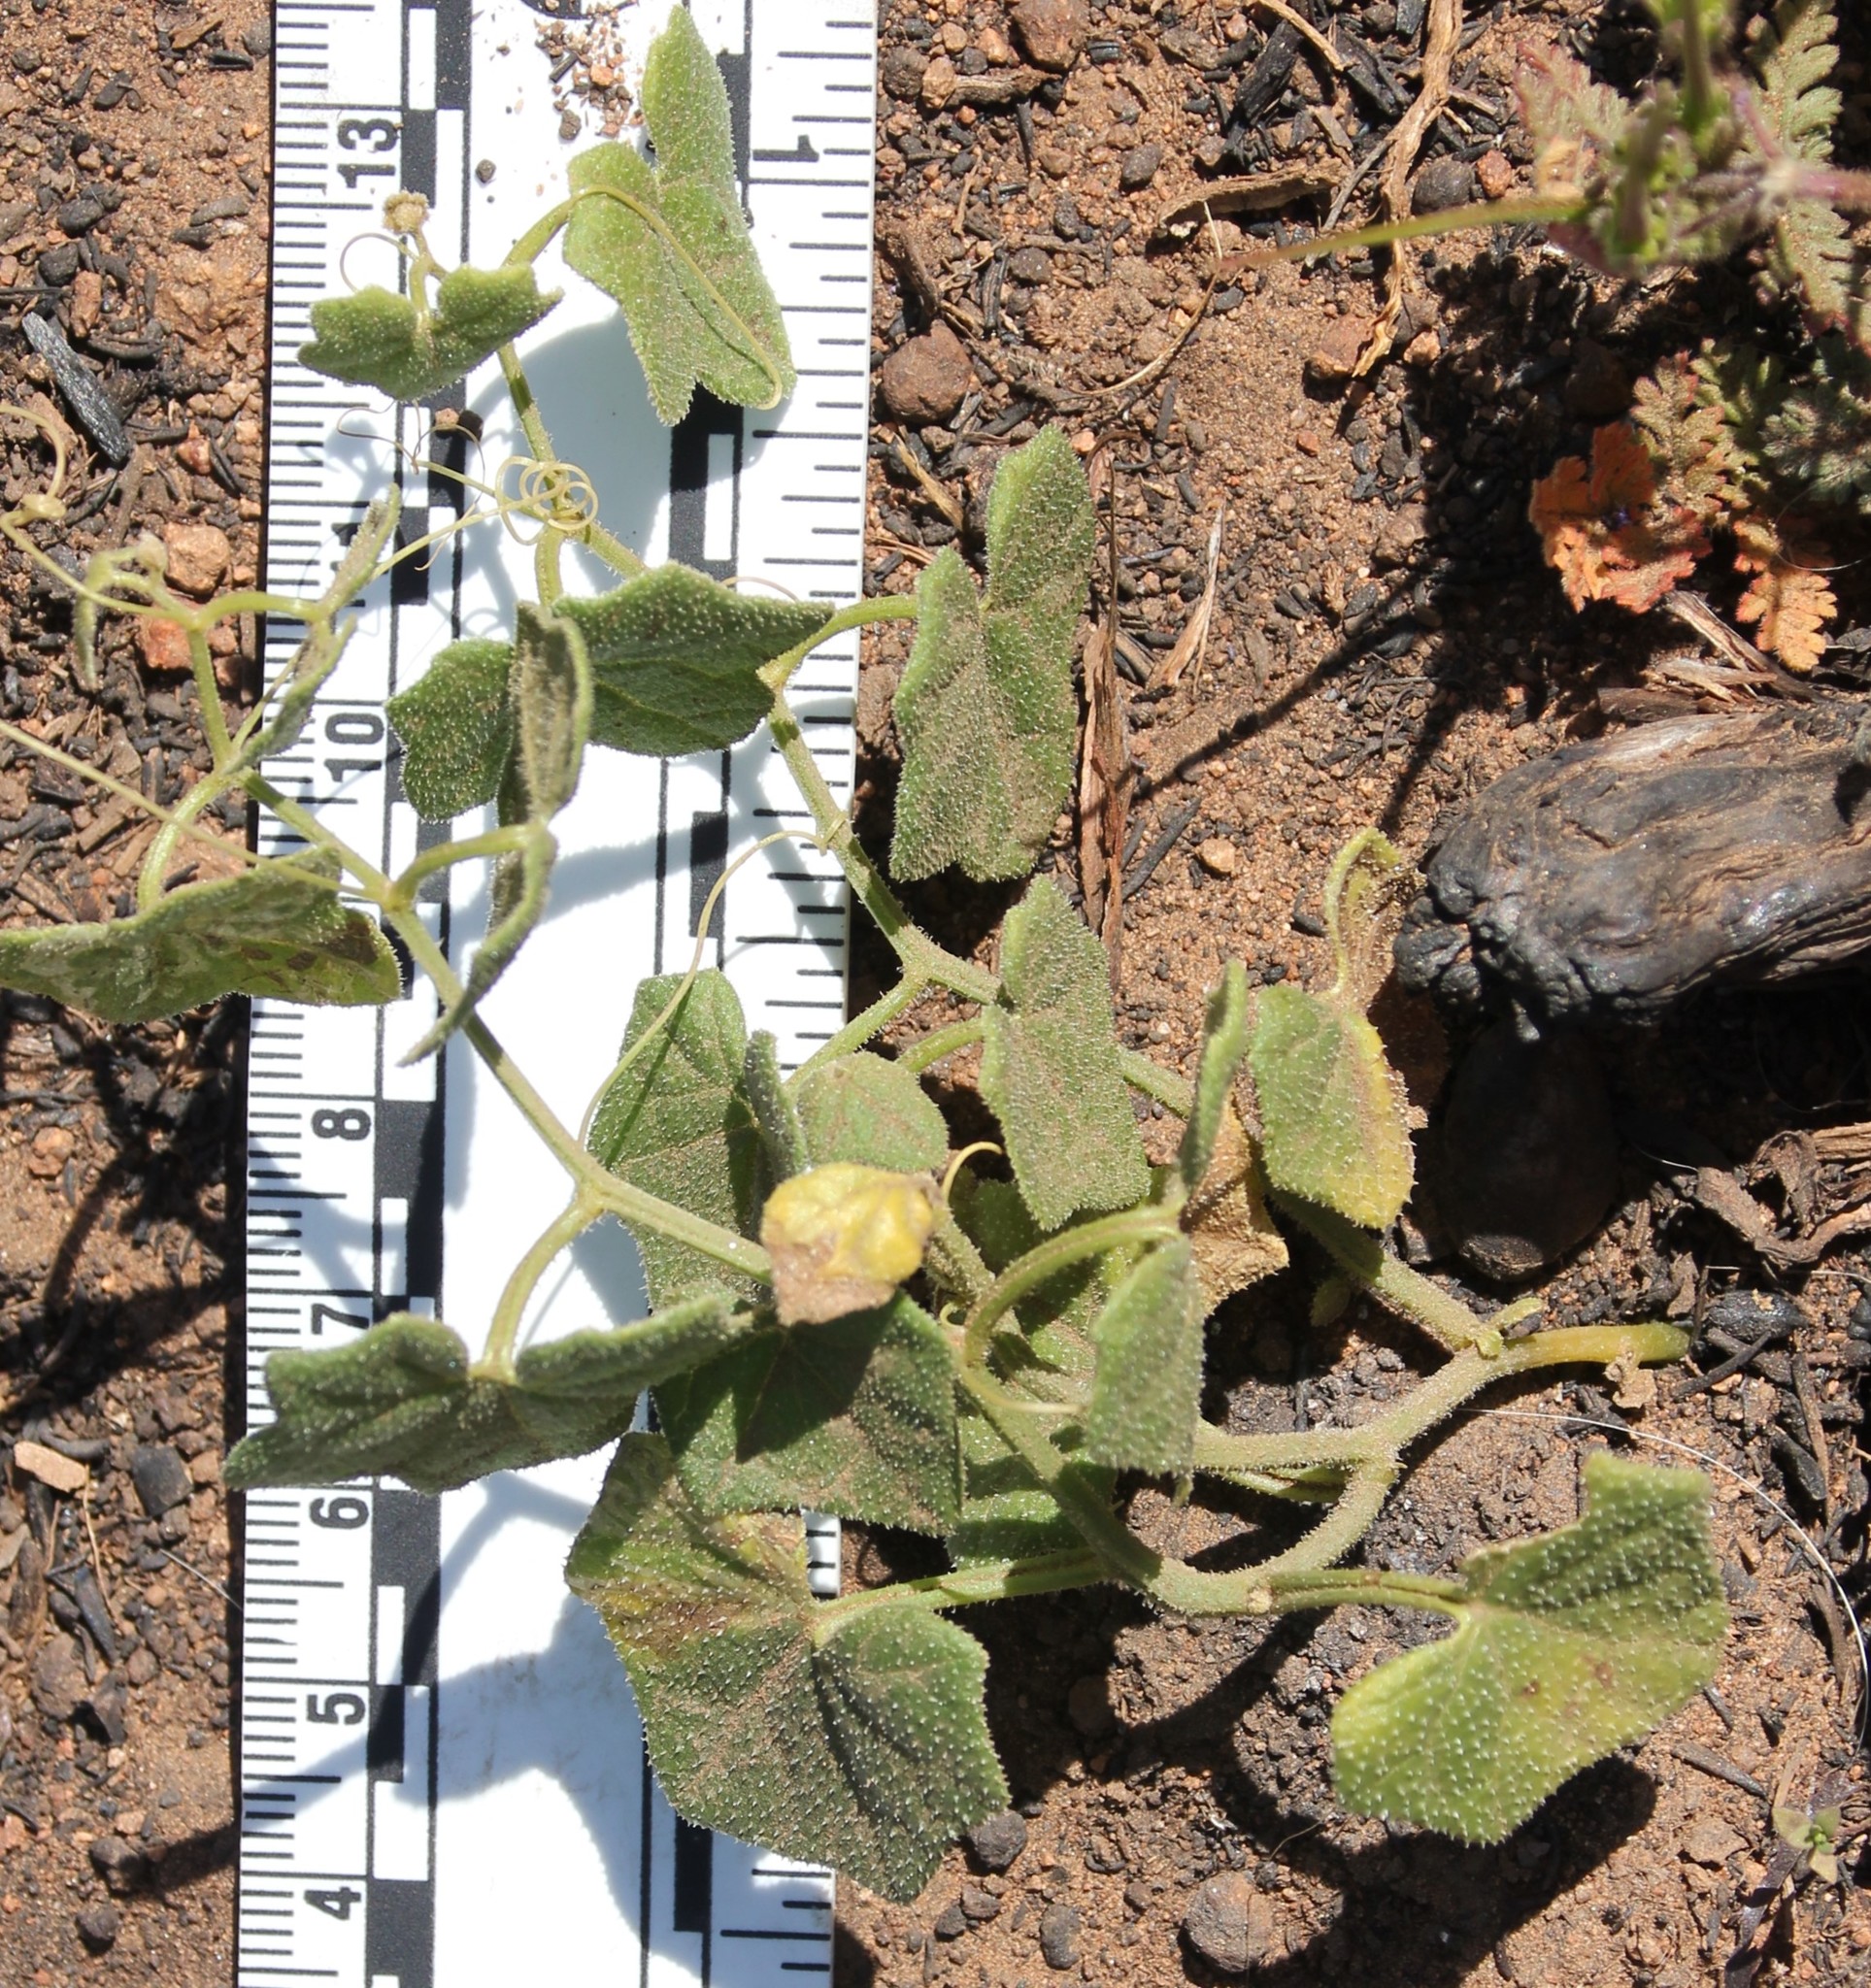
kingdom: Plantae
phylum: Tracheophyta
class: Magnoliopsida
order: Cucurbitales
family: Cucurbitaceae
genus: Marah
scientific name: Marah macrocarpa
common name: Cucamonga manroot
